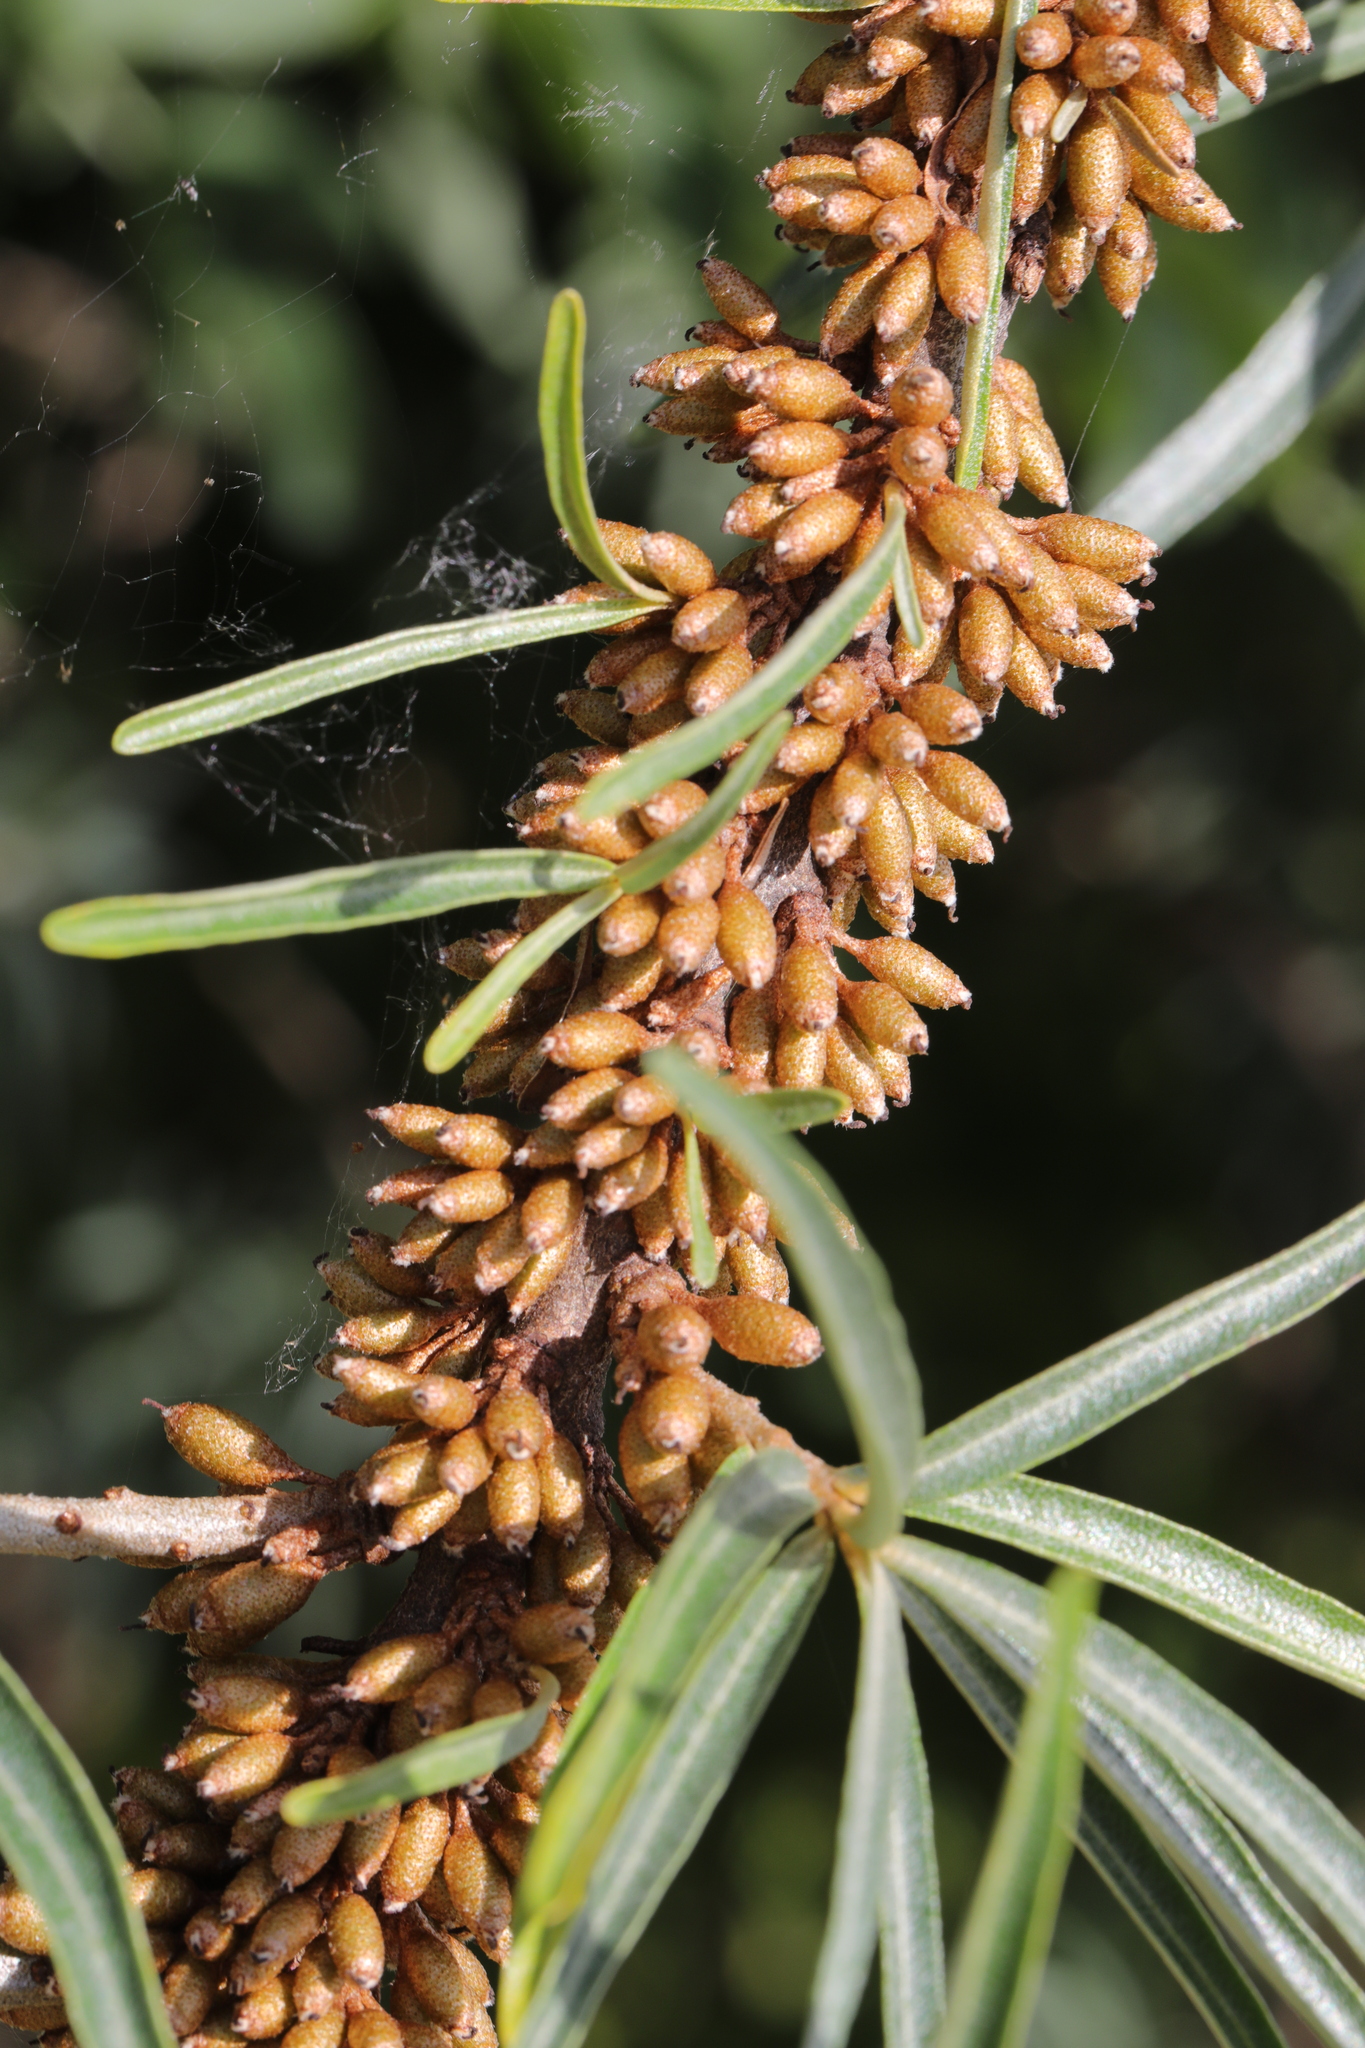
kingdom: Plantae
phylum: Tracheophyta
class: Magnoliopsida
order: Rosales
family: Elaeagnaceae
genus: Hippophae
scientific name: Hippophae rhamnoides
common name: Sea-buckthorn
